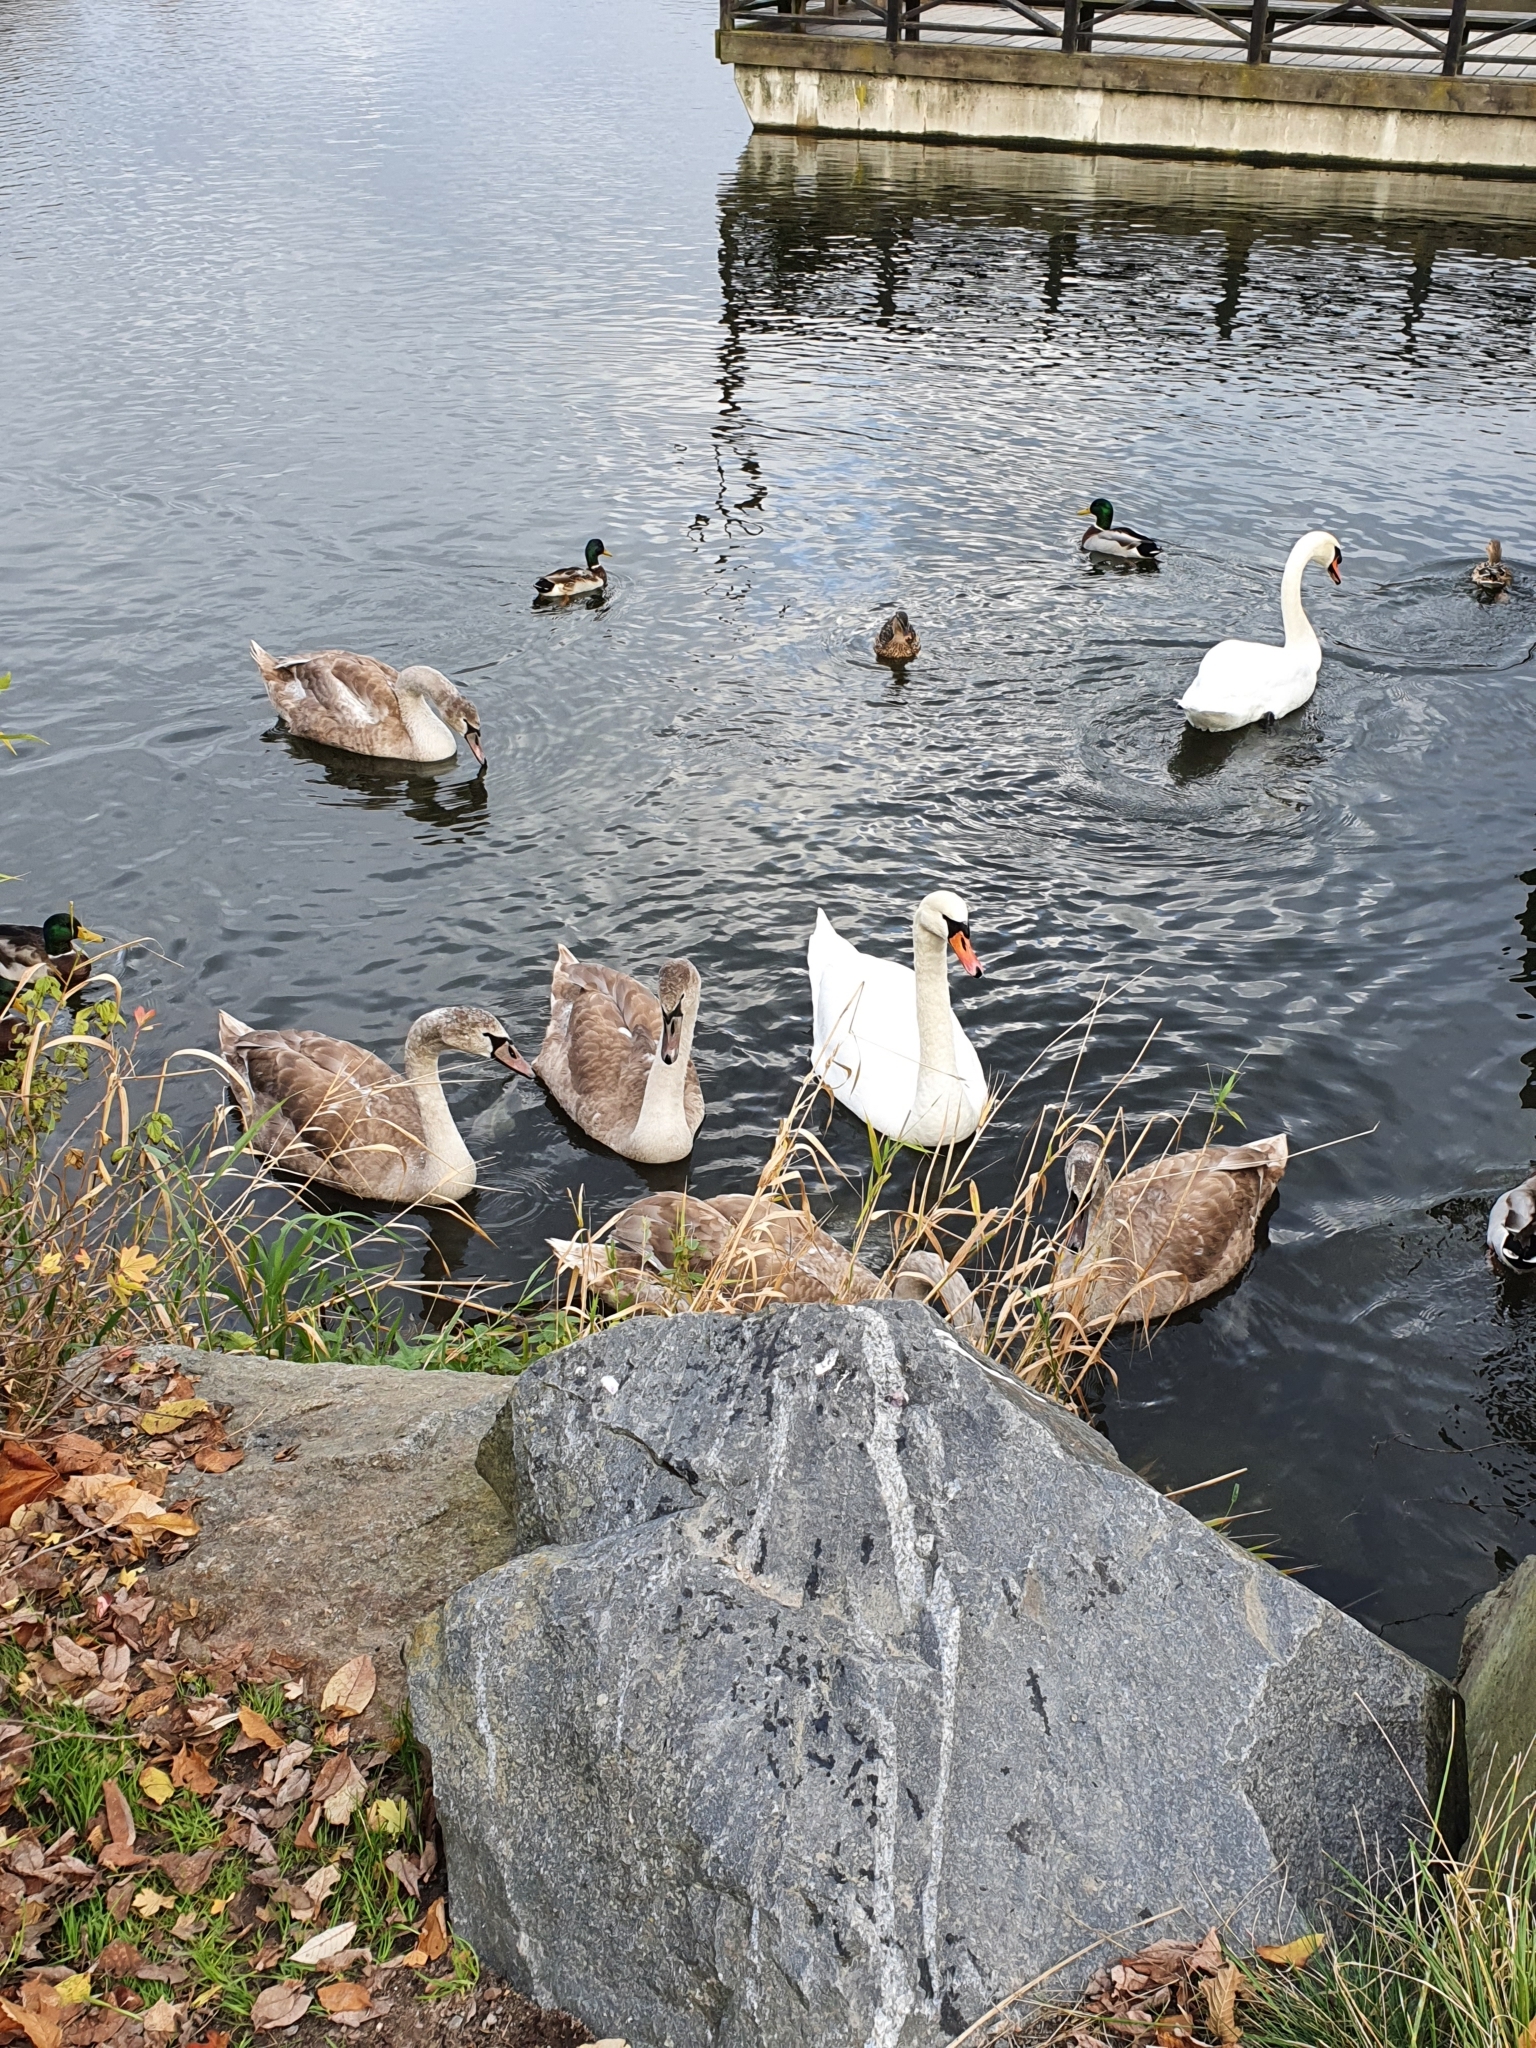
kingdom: Animalia
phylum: Chordata
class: Aves
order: Anseriformes
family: Anatidae
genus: Cygnus
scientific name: Cygnus olor
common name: Mute swan
